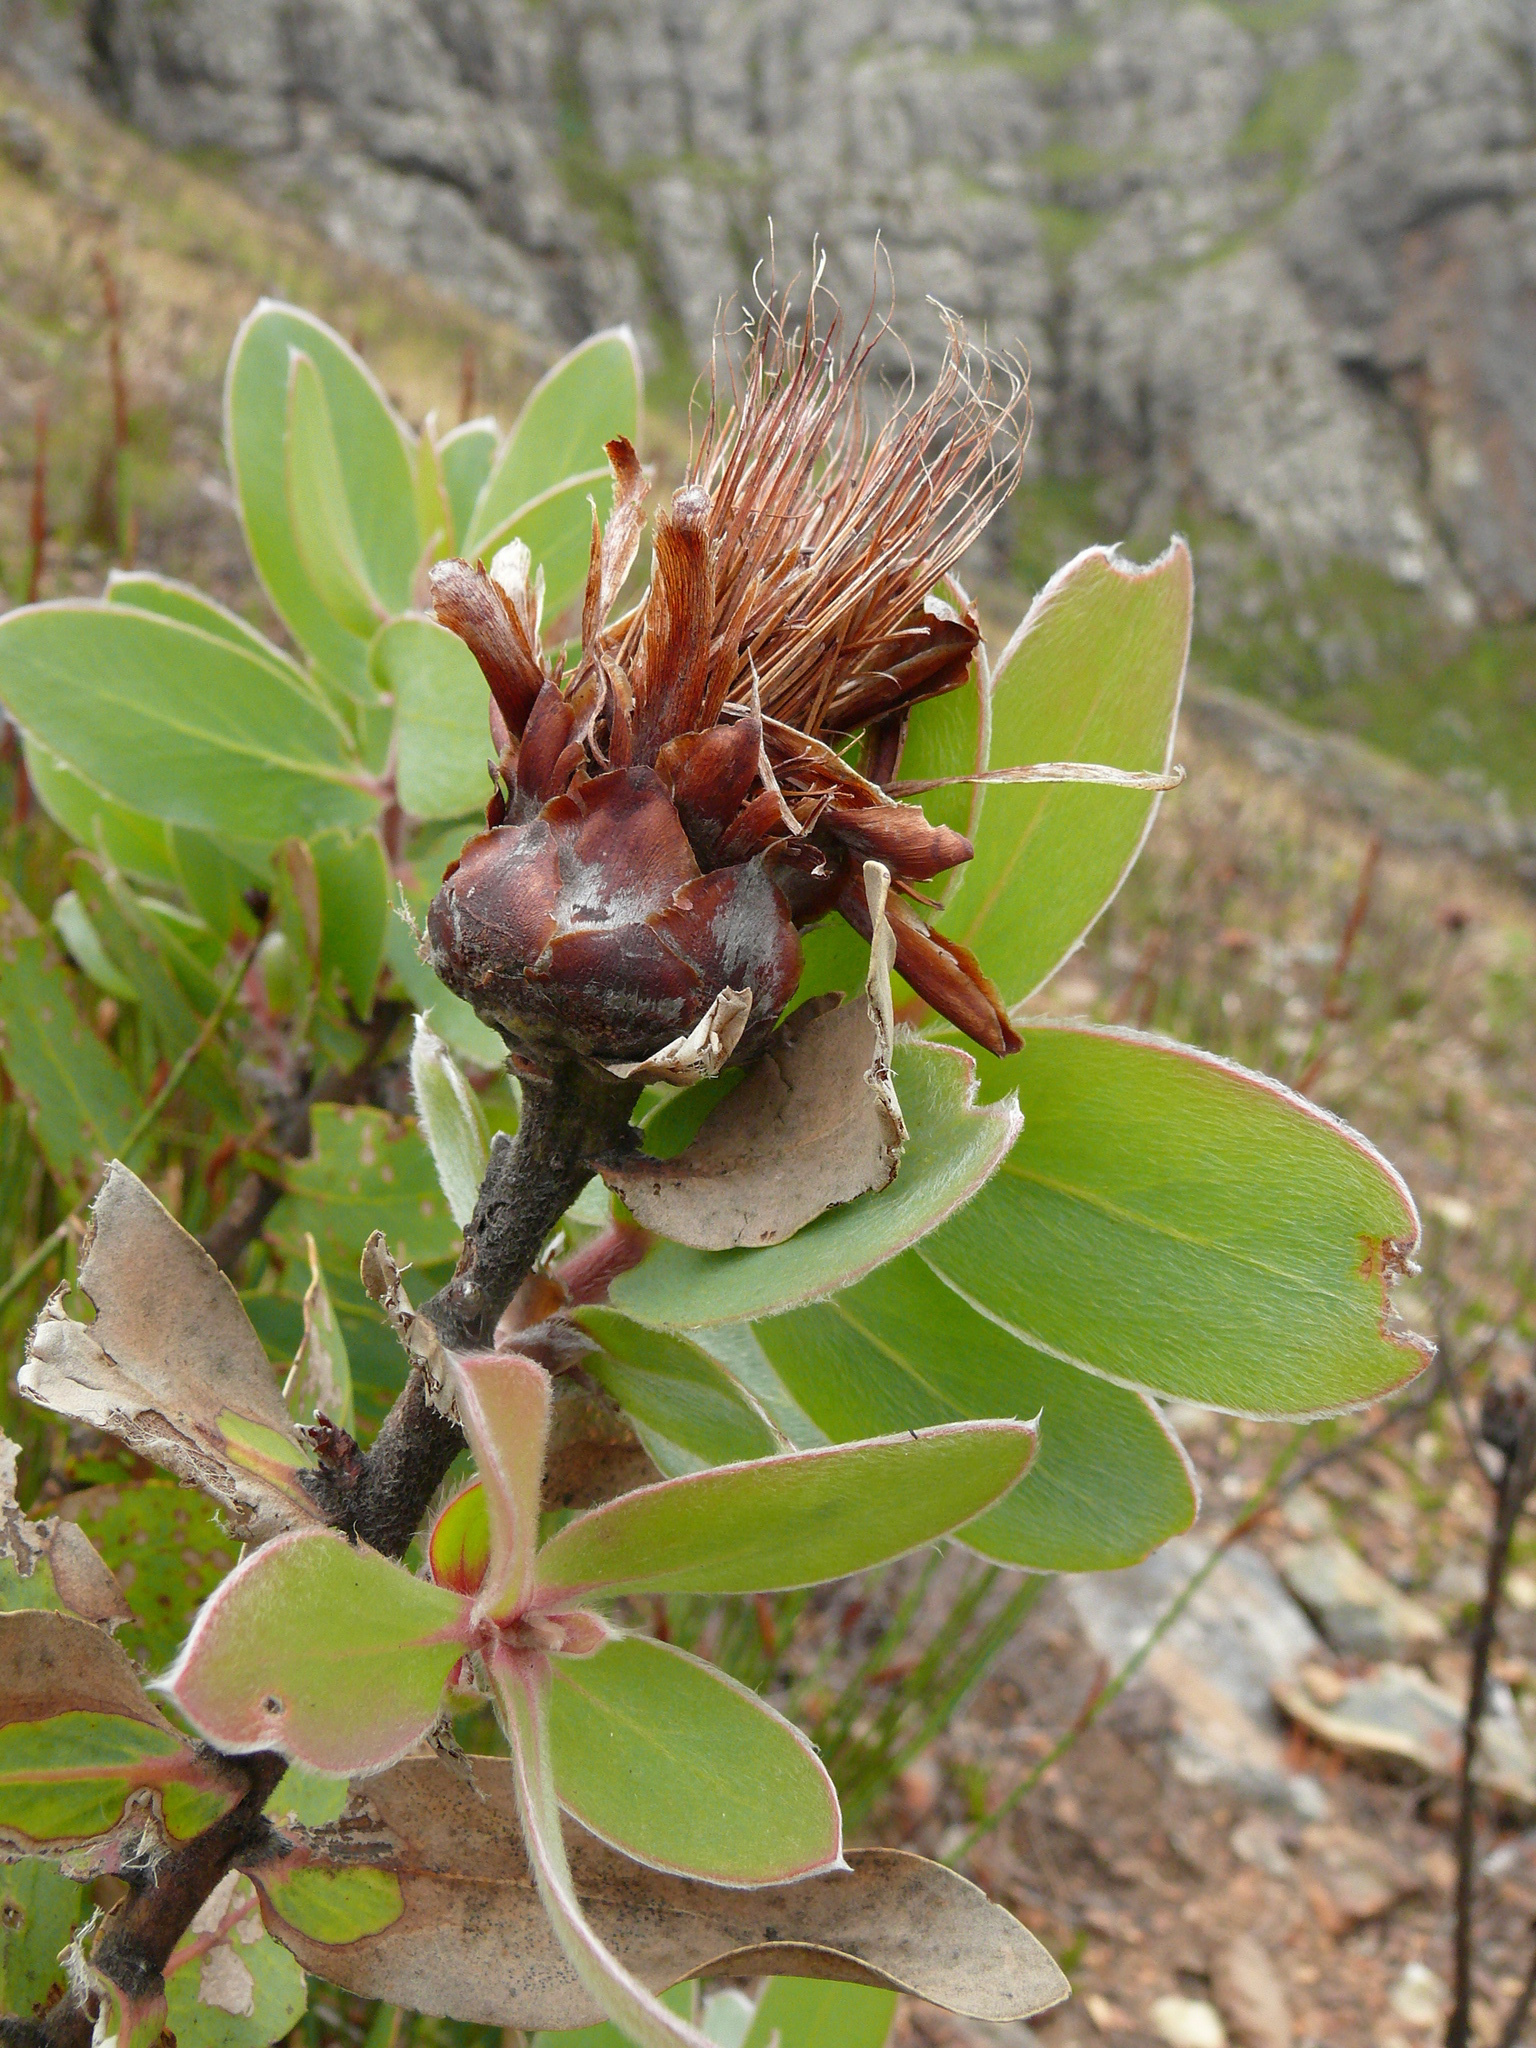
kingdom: Plantae
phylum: Tracheophyta
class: Magnoliopsida
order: Proteales
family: Proteaceae
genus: Protea
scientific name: Protea
